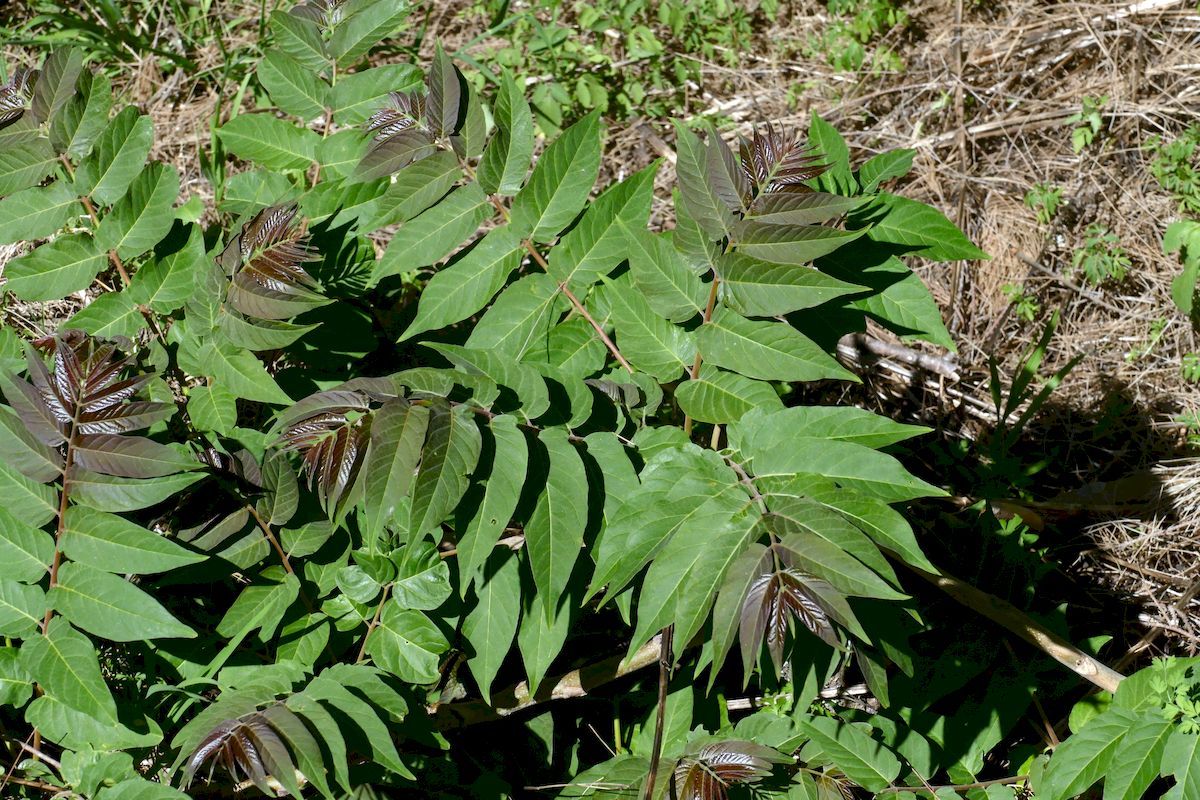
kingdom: Plantae
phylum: Tracheophyta
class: Magnoliopsida
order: Sapindales
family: Simaroubaceae
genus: Ailanthus
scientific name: Ailanthus altissima
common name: Tree-of-heaven
